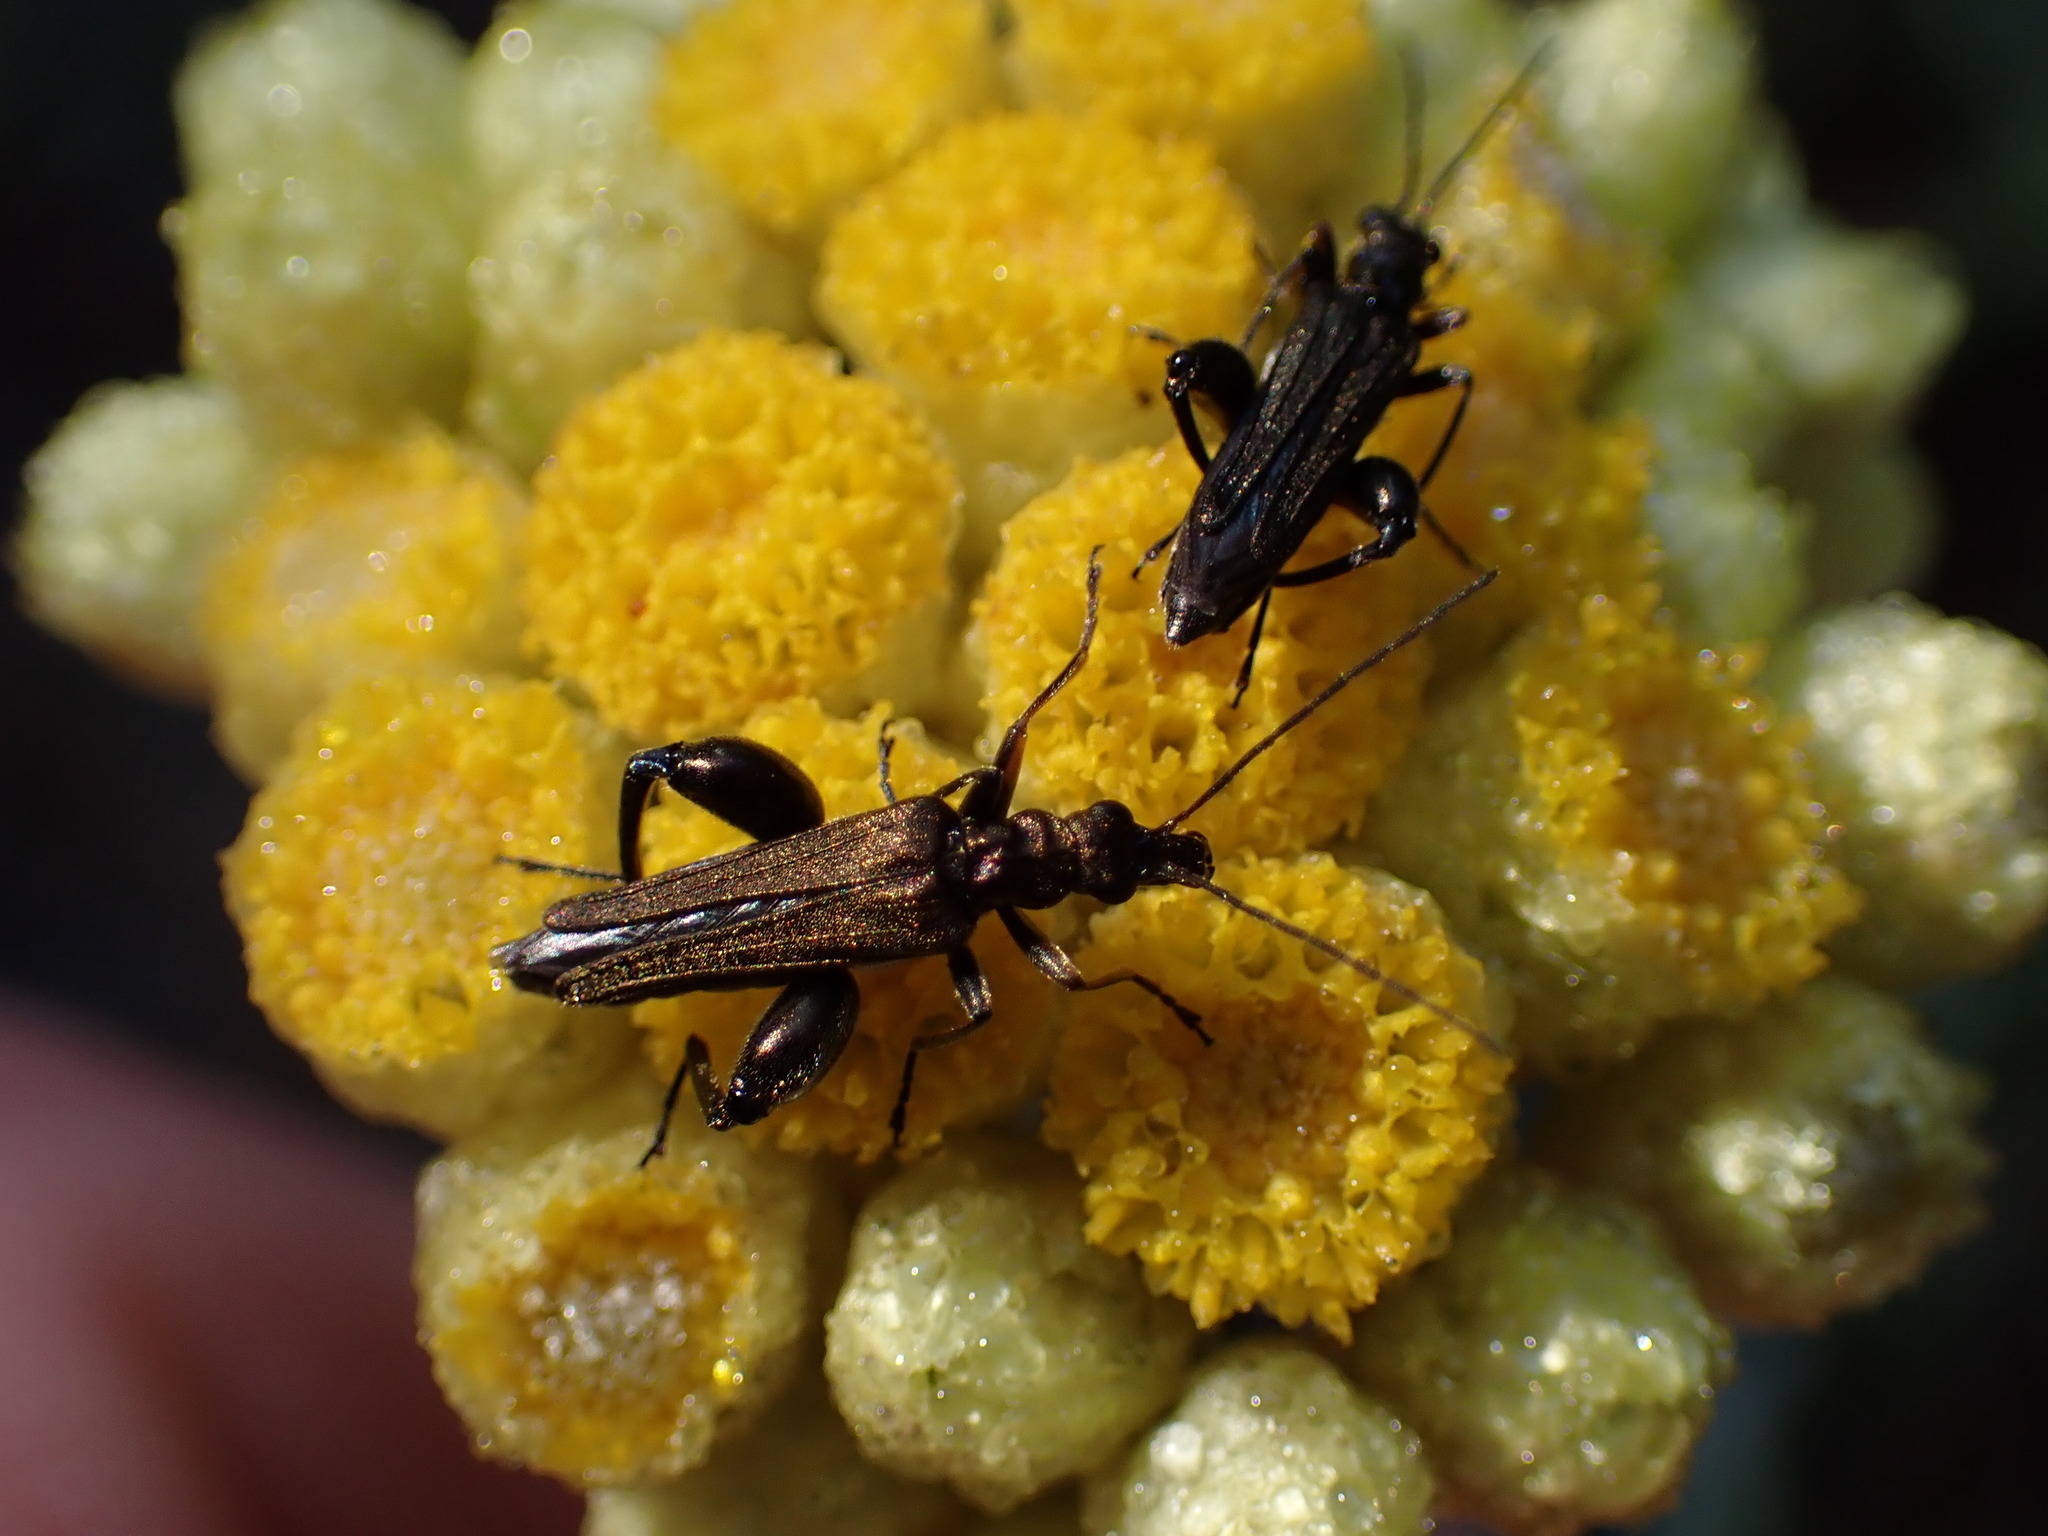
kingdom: Animalia
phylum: Arthropoda
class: Insecta
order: Coleoptera
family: Oedemeridae
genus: Oedemera
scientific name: Oedemera flavipes
